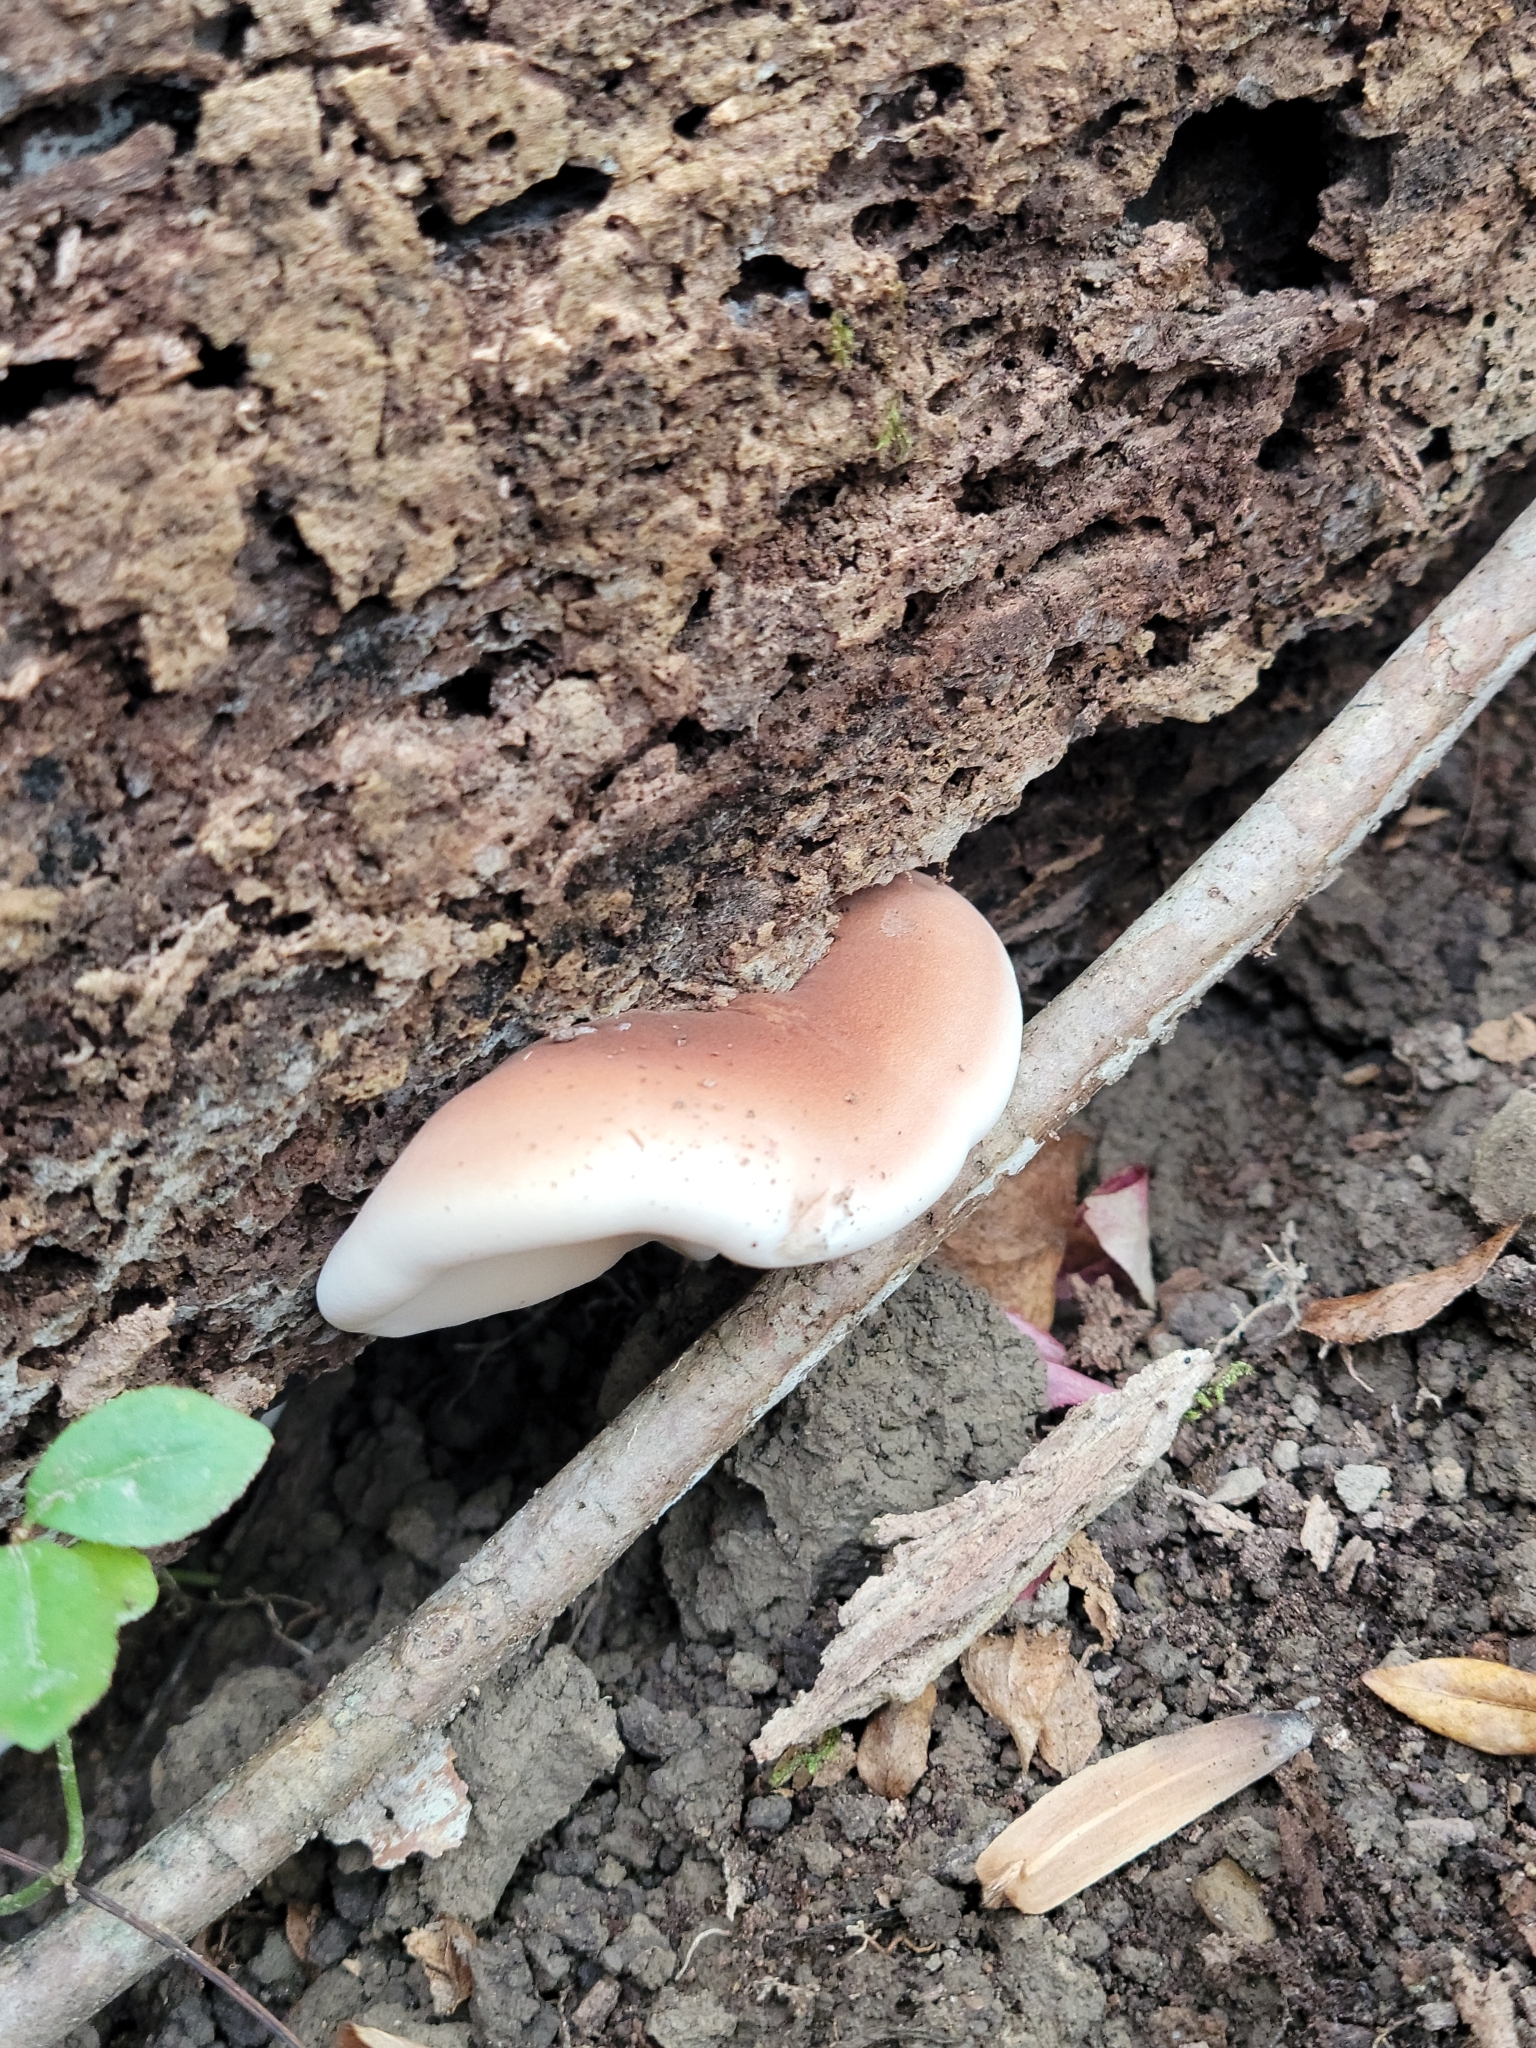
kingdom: Fungi
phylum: Basidiomycota
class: Agaricomycetes
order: Polyporales
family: Ischnodermataceae
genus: Ischnoderma
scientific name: Ischnoderma resinosum
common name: Resinous polypore
